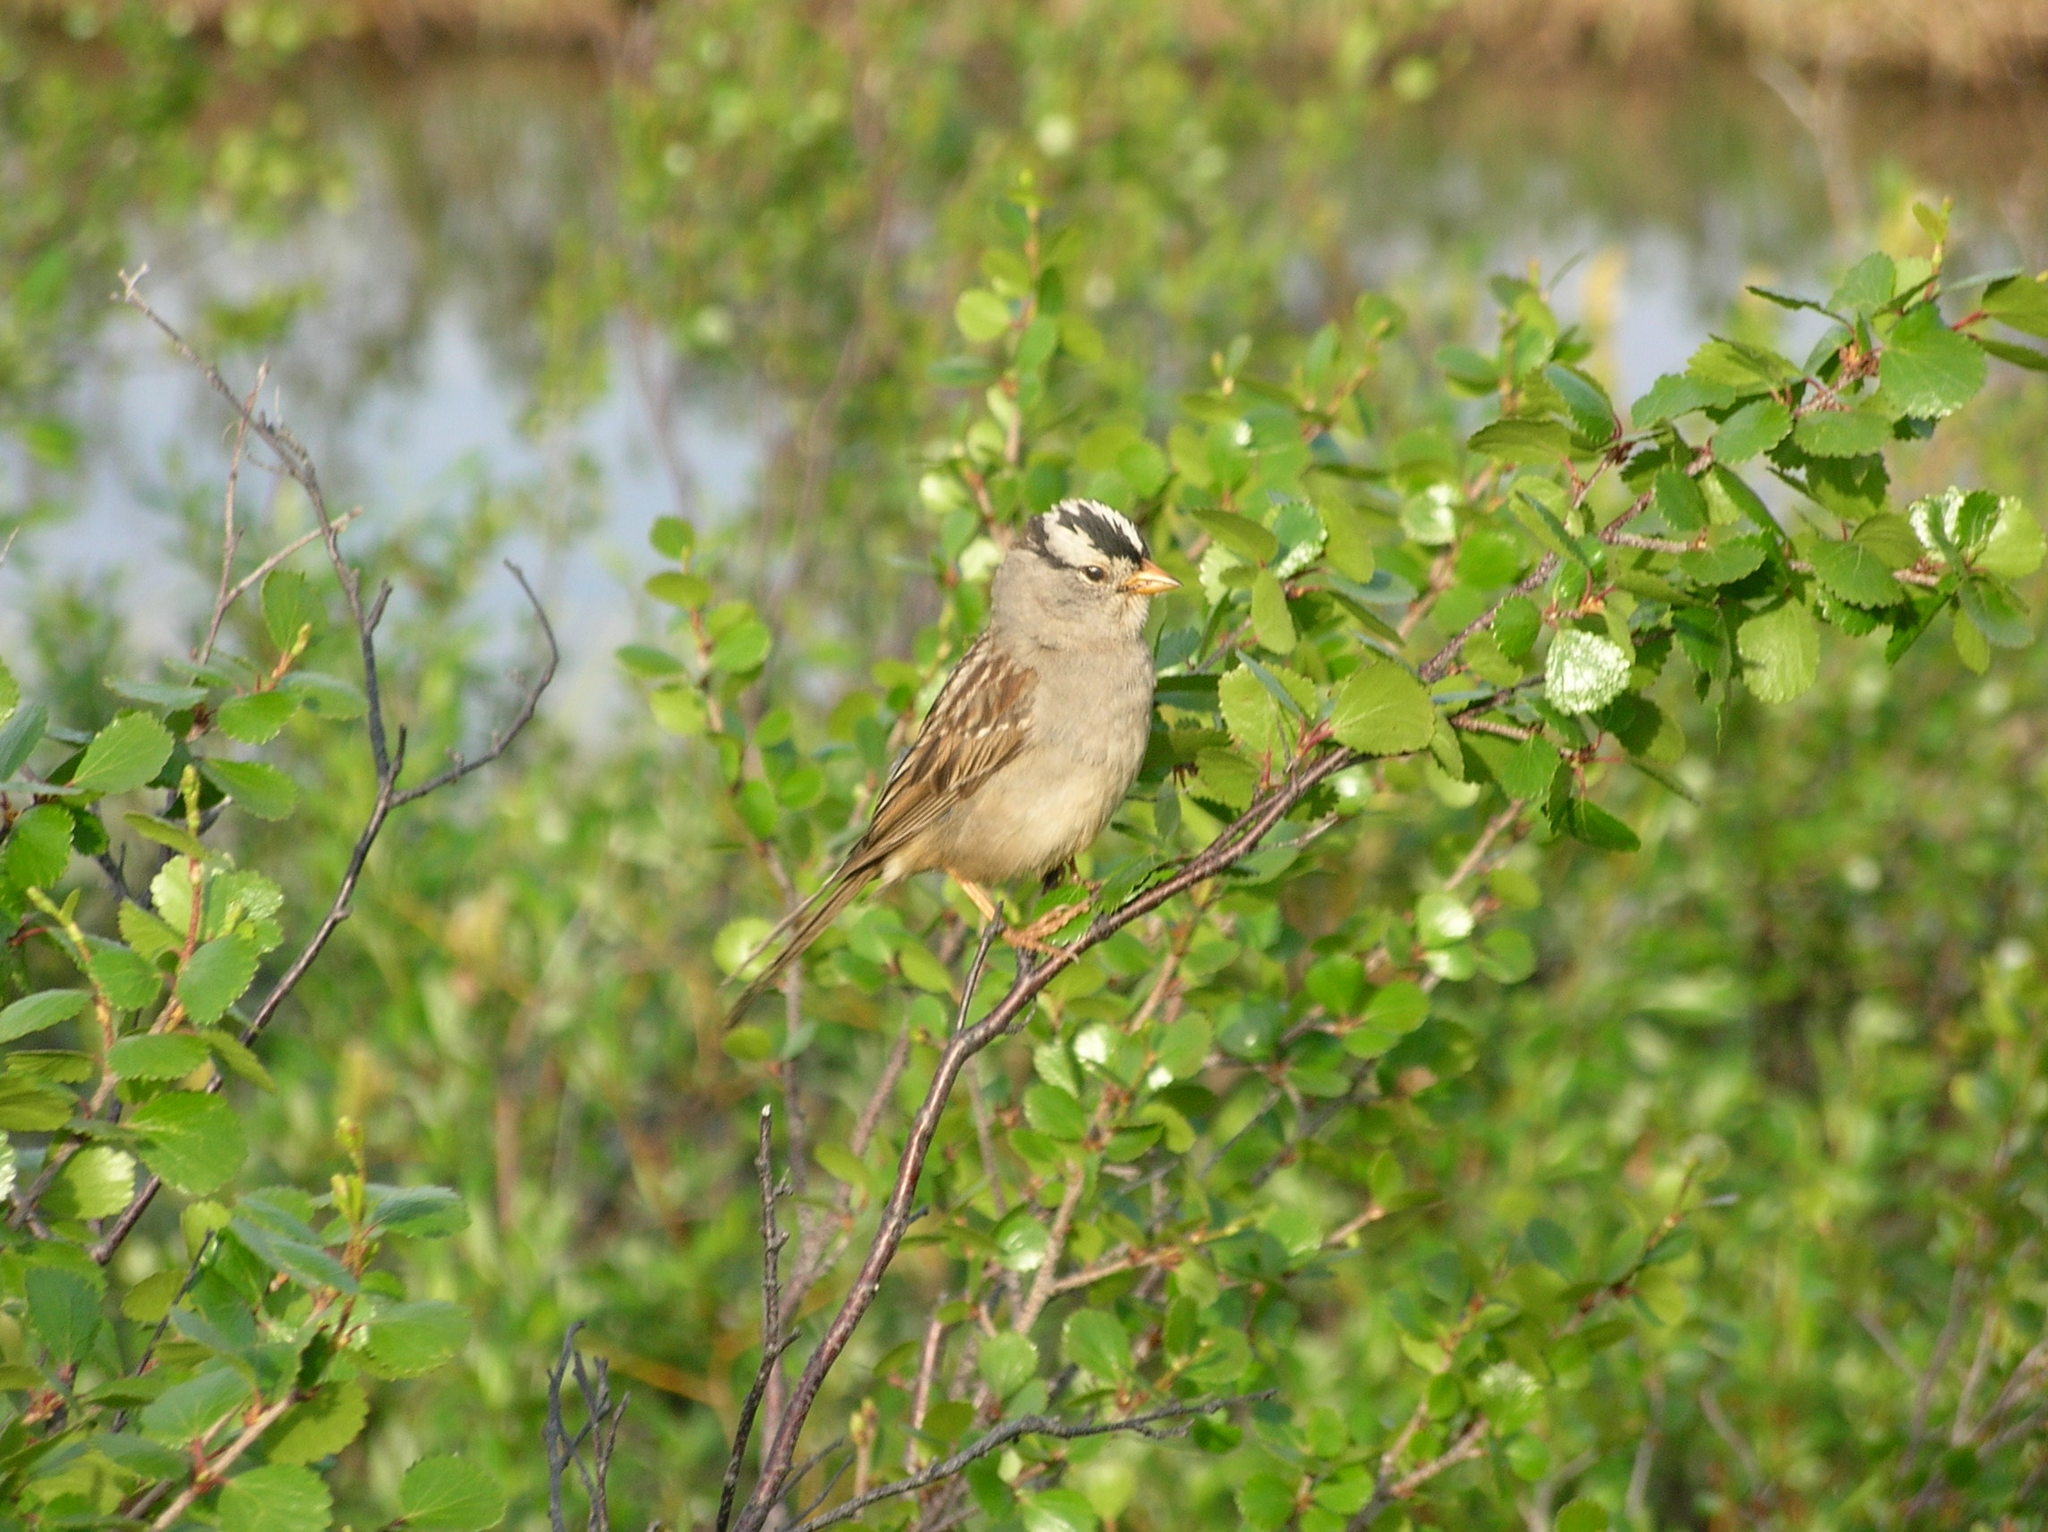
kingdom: Animalia
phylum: Chordata
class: Aves
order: Passeriformes
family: Passerellidae
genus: Zonotrichia
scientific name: Zonotrichia leucophrys
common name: White-crowned sparrow
